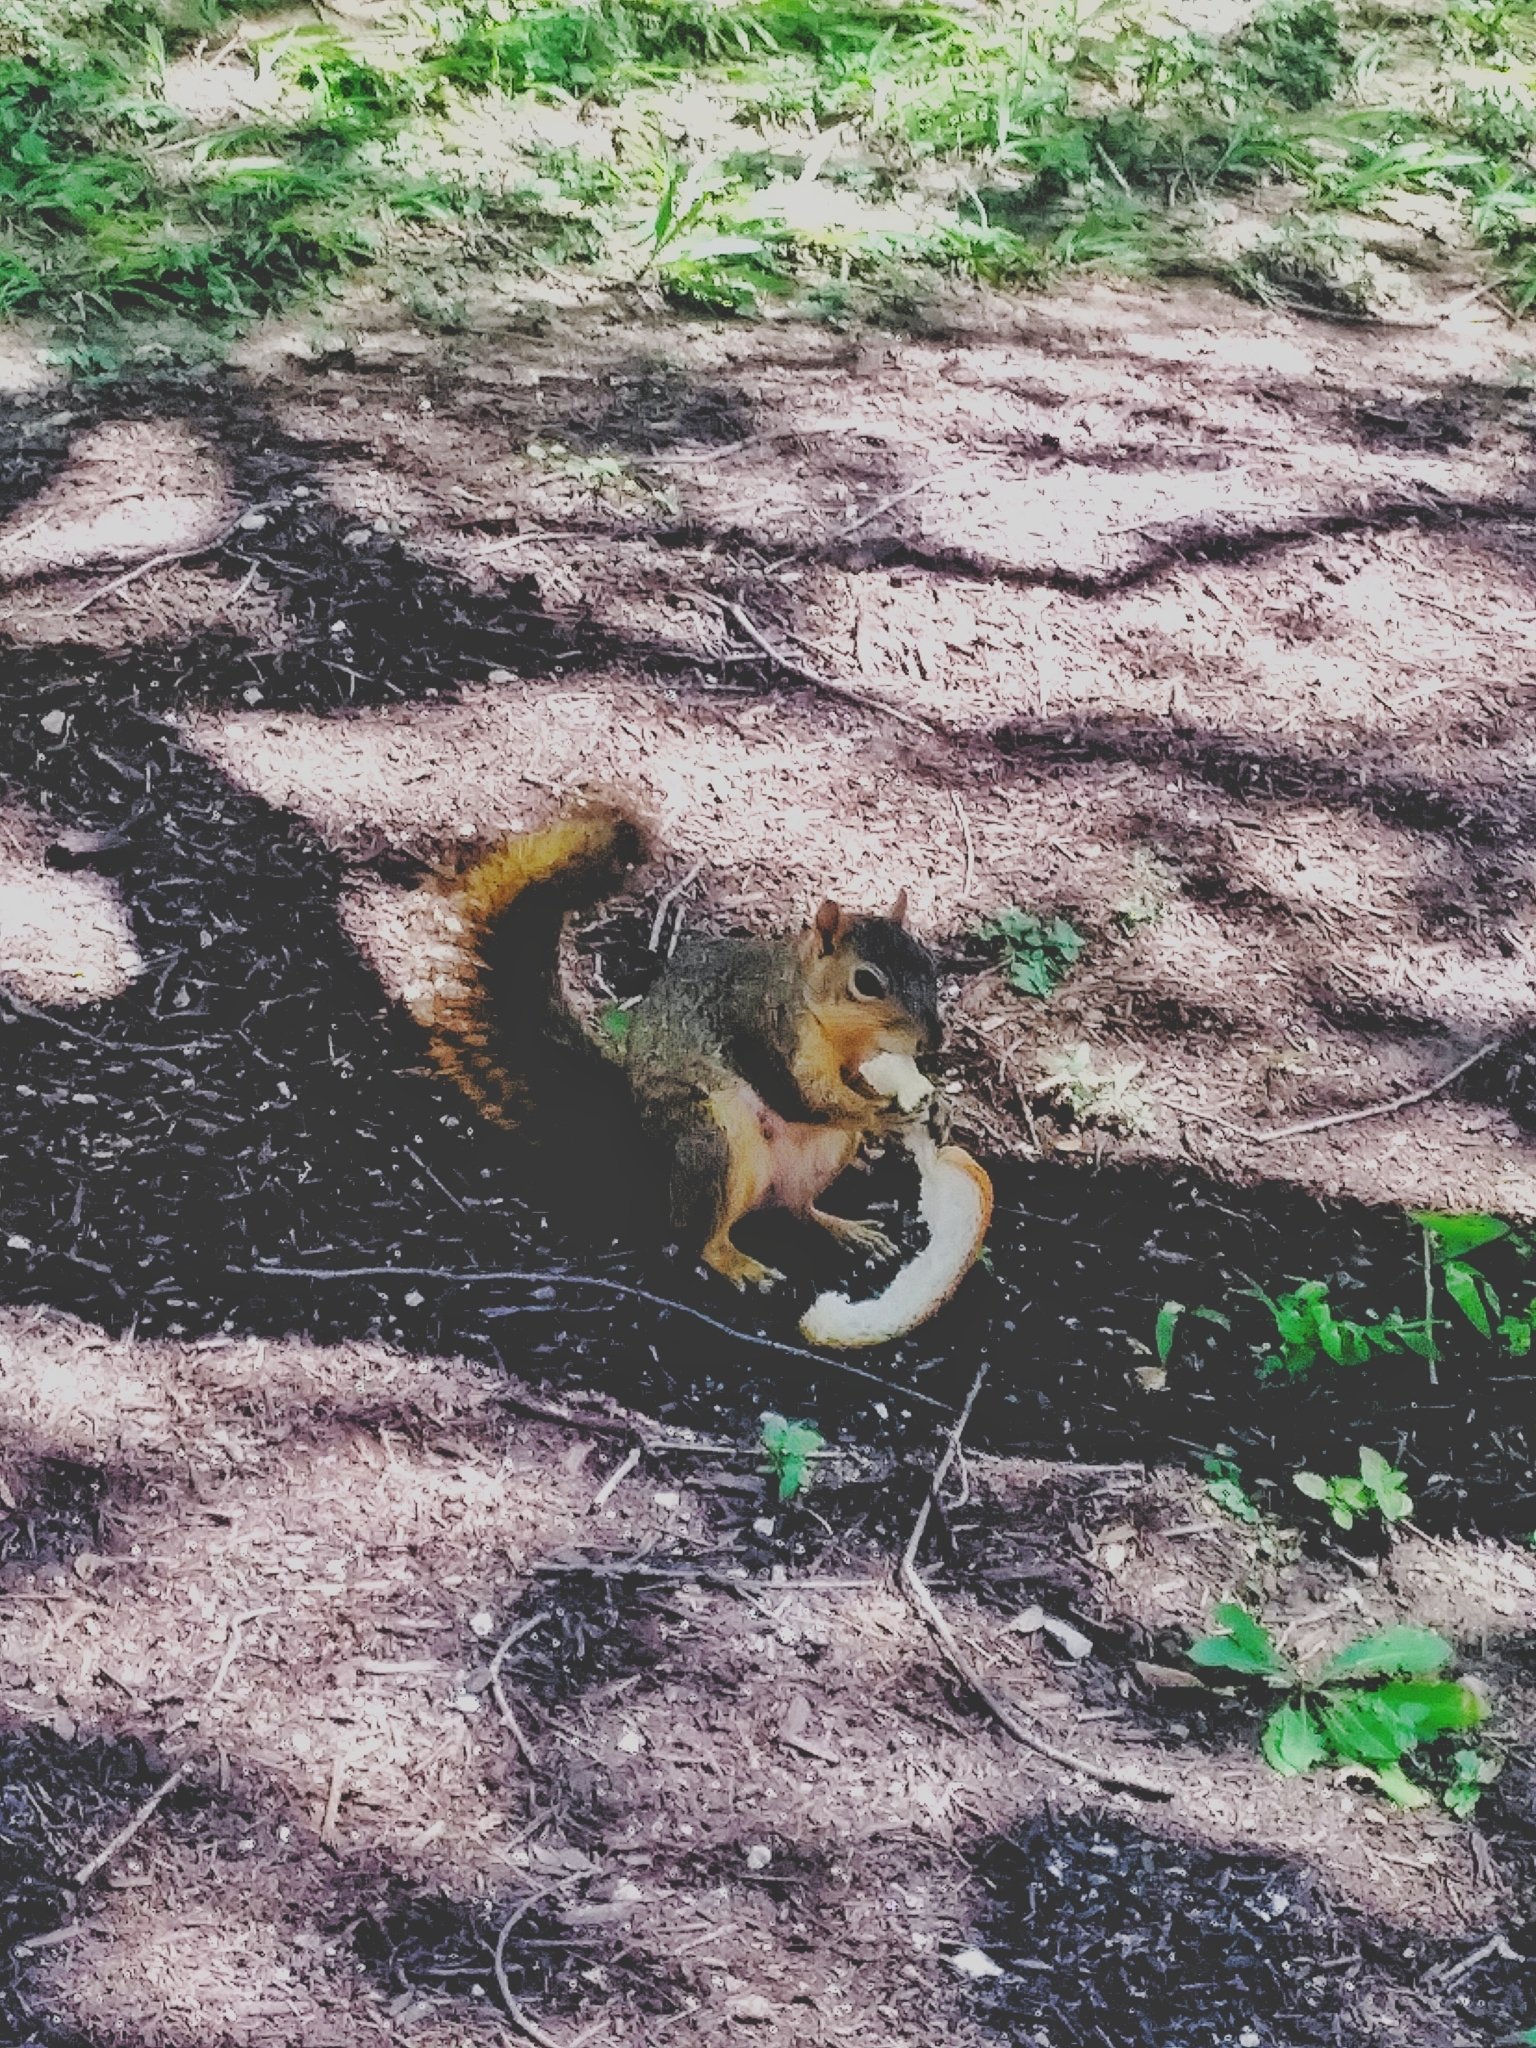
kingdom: Animalia
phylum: Chordata
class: Mammalia
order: Rodentia
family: Sciuridae
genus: Sciurus
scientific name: Sciurus niger
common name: Fox squirrel
